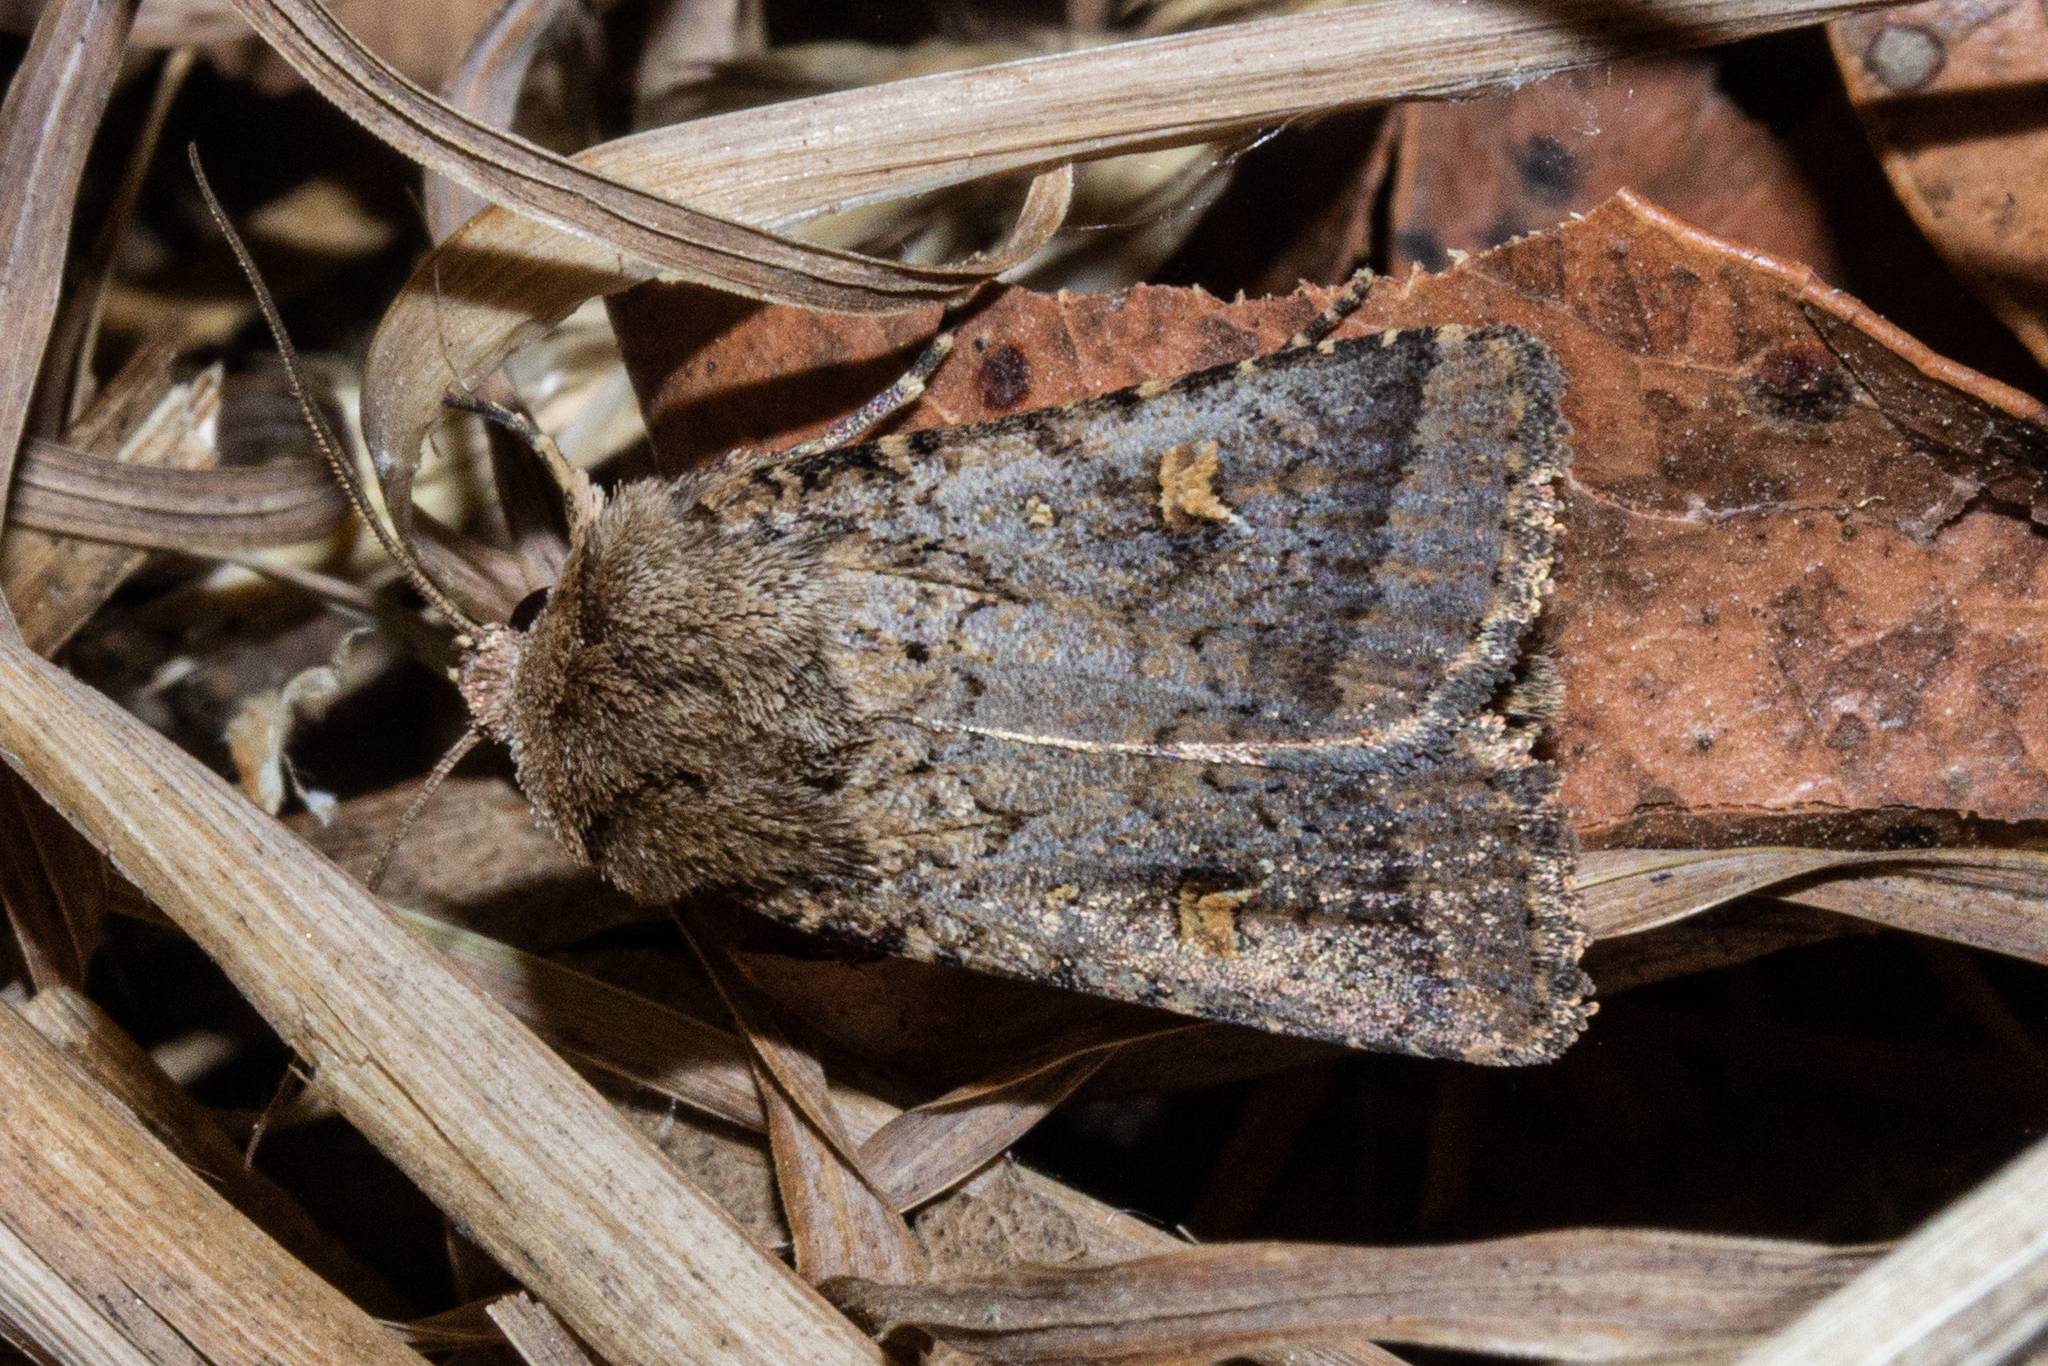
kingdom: Animalia
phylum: Arthropoda
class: Insecta
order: Lepidoptera
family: Noctuidae
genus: Proteuxoa
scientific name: Proteuxoa tetronycha
